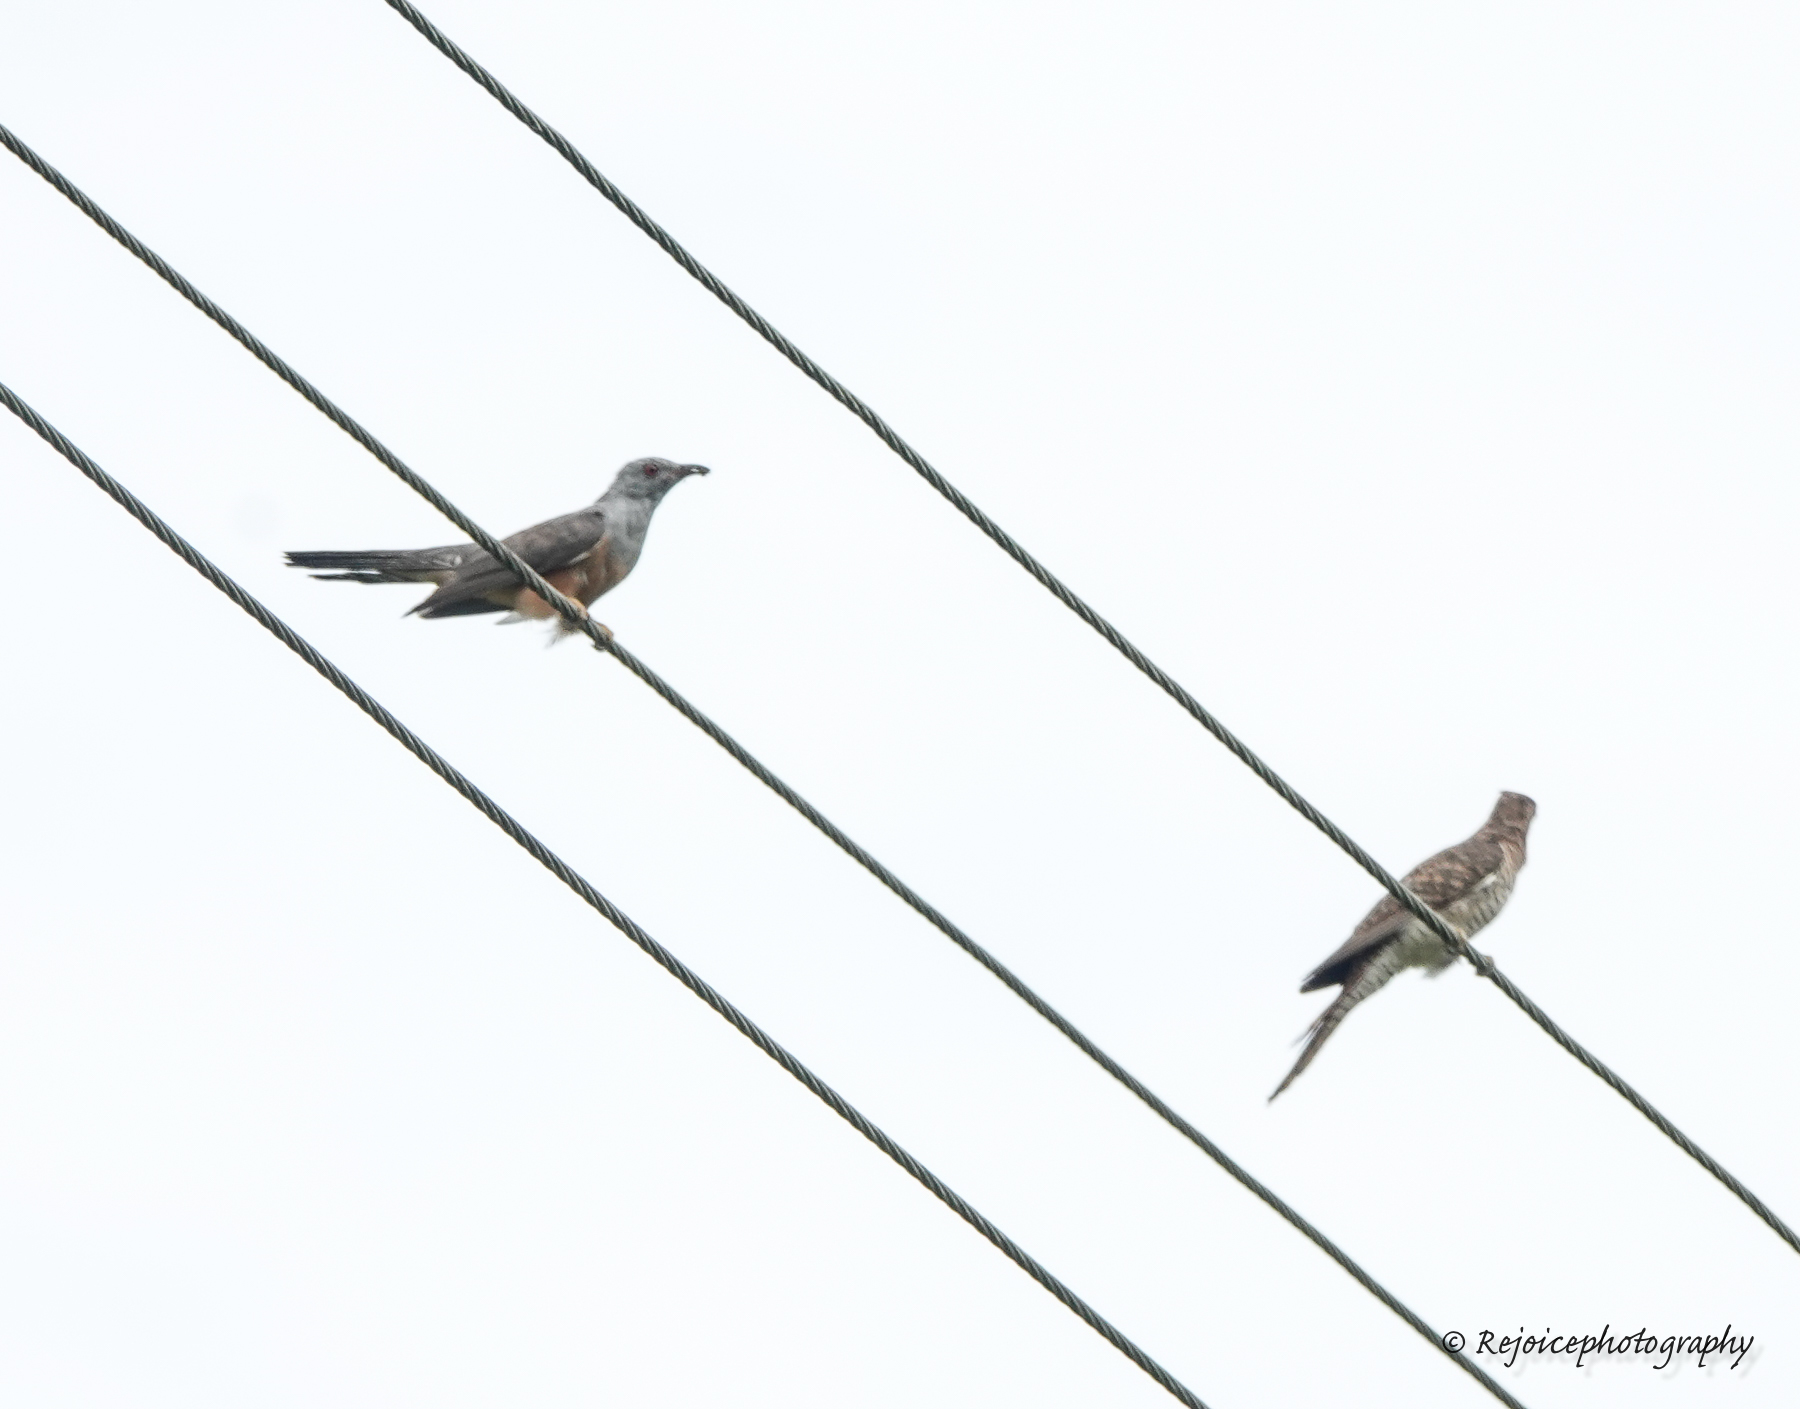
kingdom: Animalia
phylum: Chordata
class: Aves
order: Cuculiformes
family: Cuculidae
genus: Cacomantis
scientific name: Cacomantis merulinus
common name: Plaintive cuckoo
